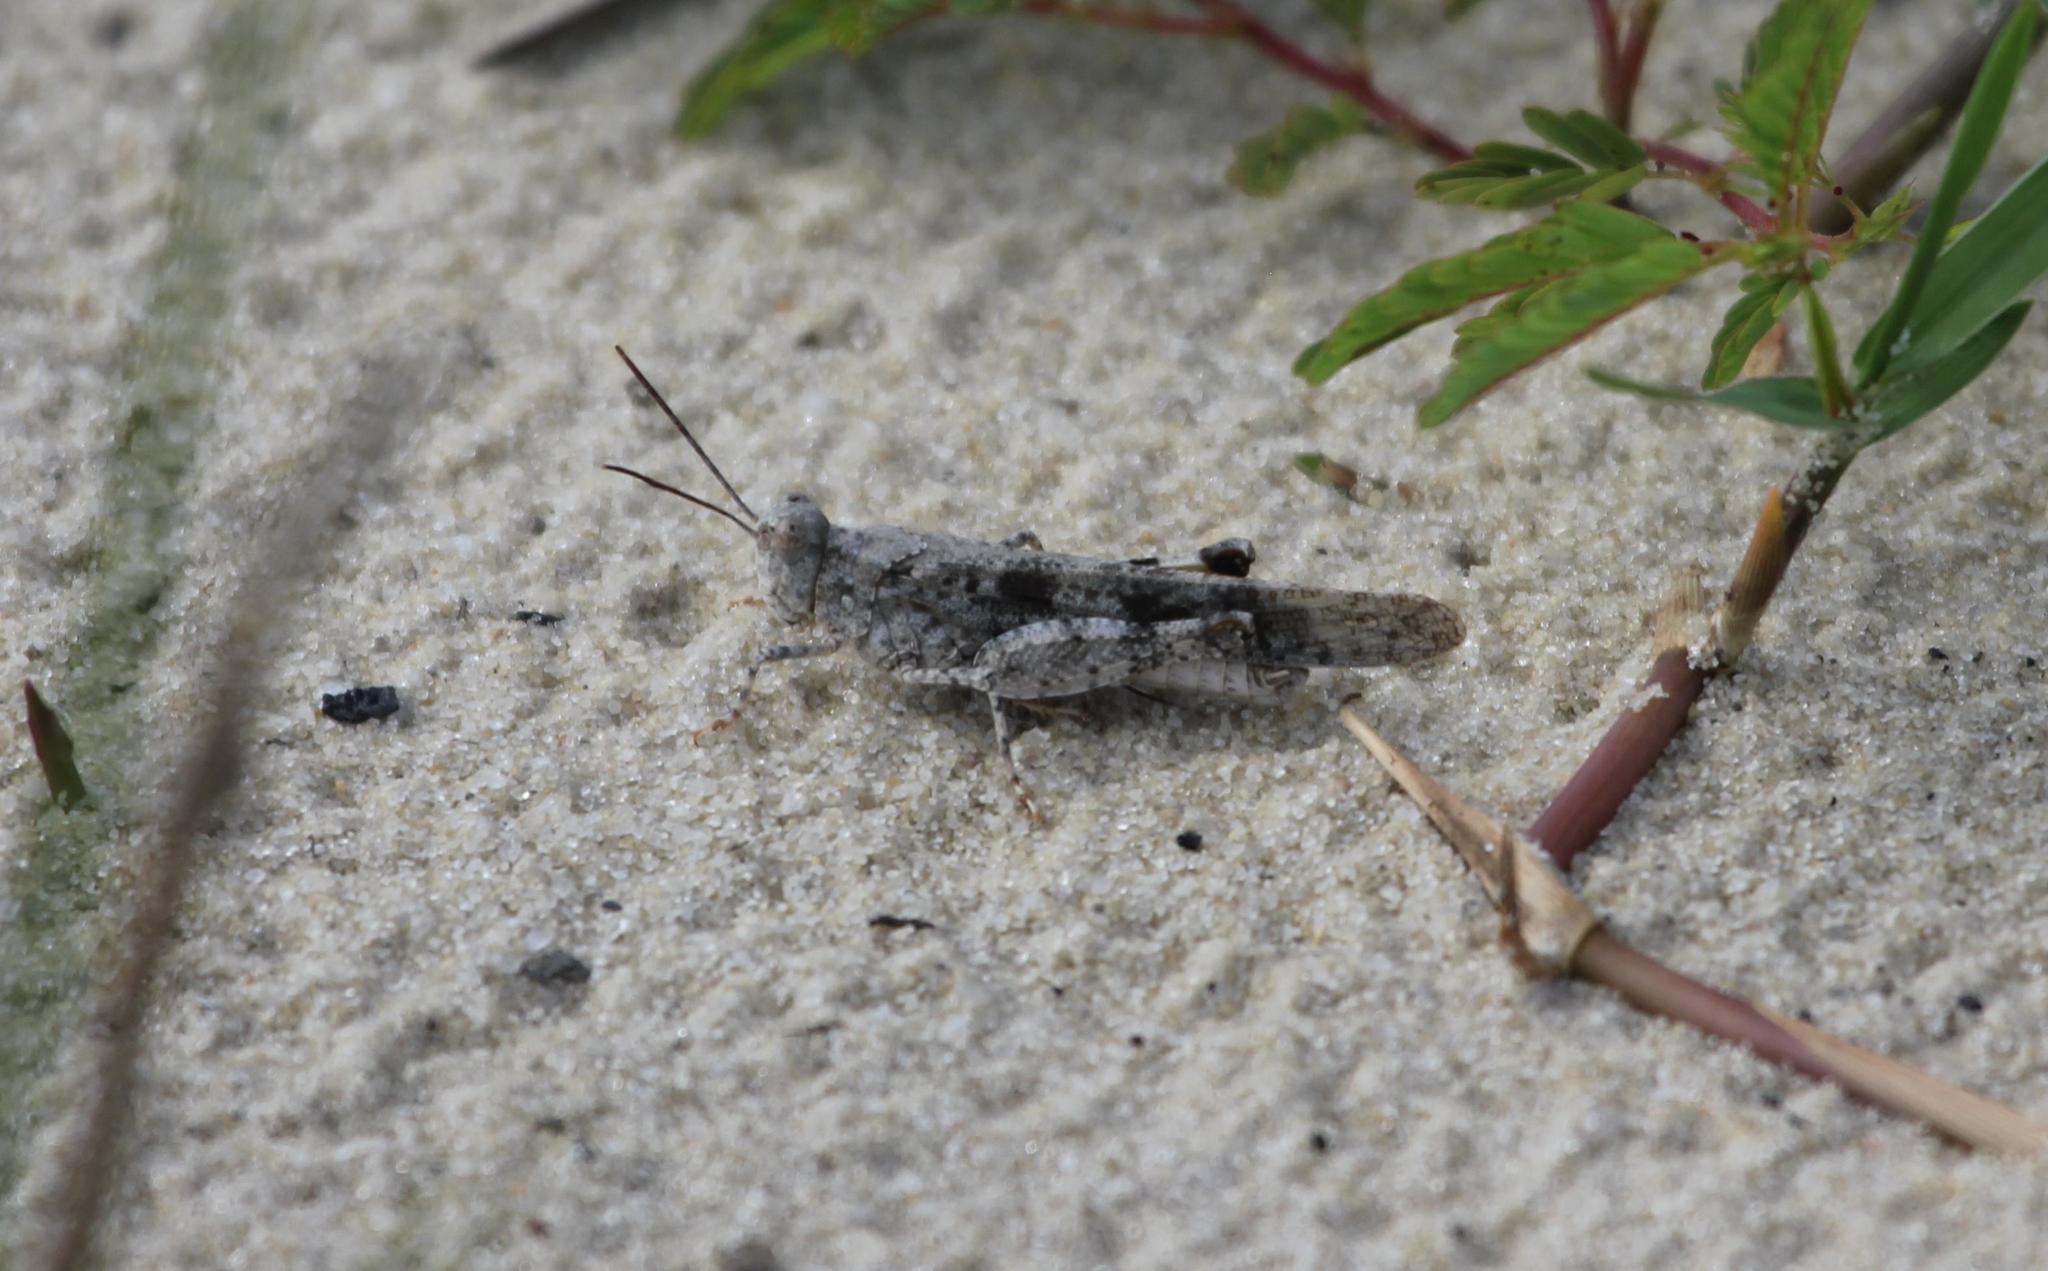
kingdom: Animalia
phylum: Arthropoda
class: Insecta
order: Orthoptera
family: Acrididae
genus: Trimerotropis
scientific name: Trimerotropis maritima
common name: Seaside locust
